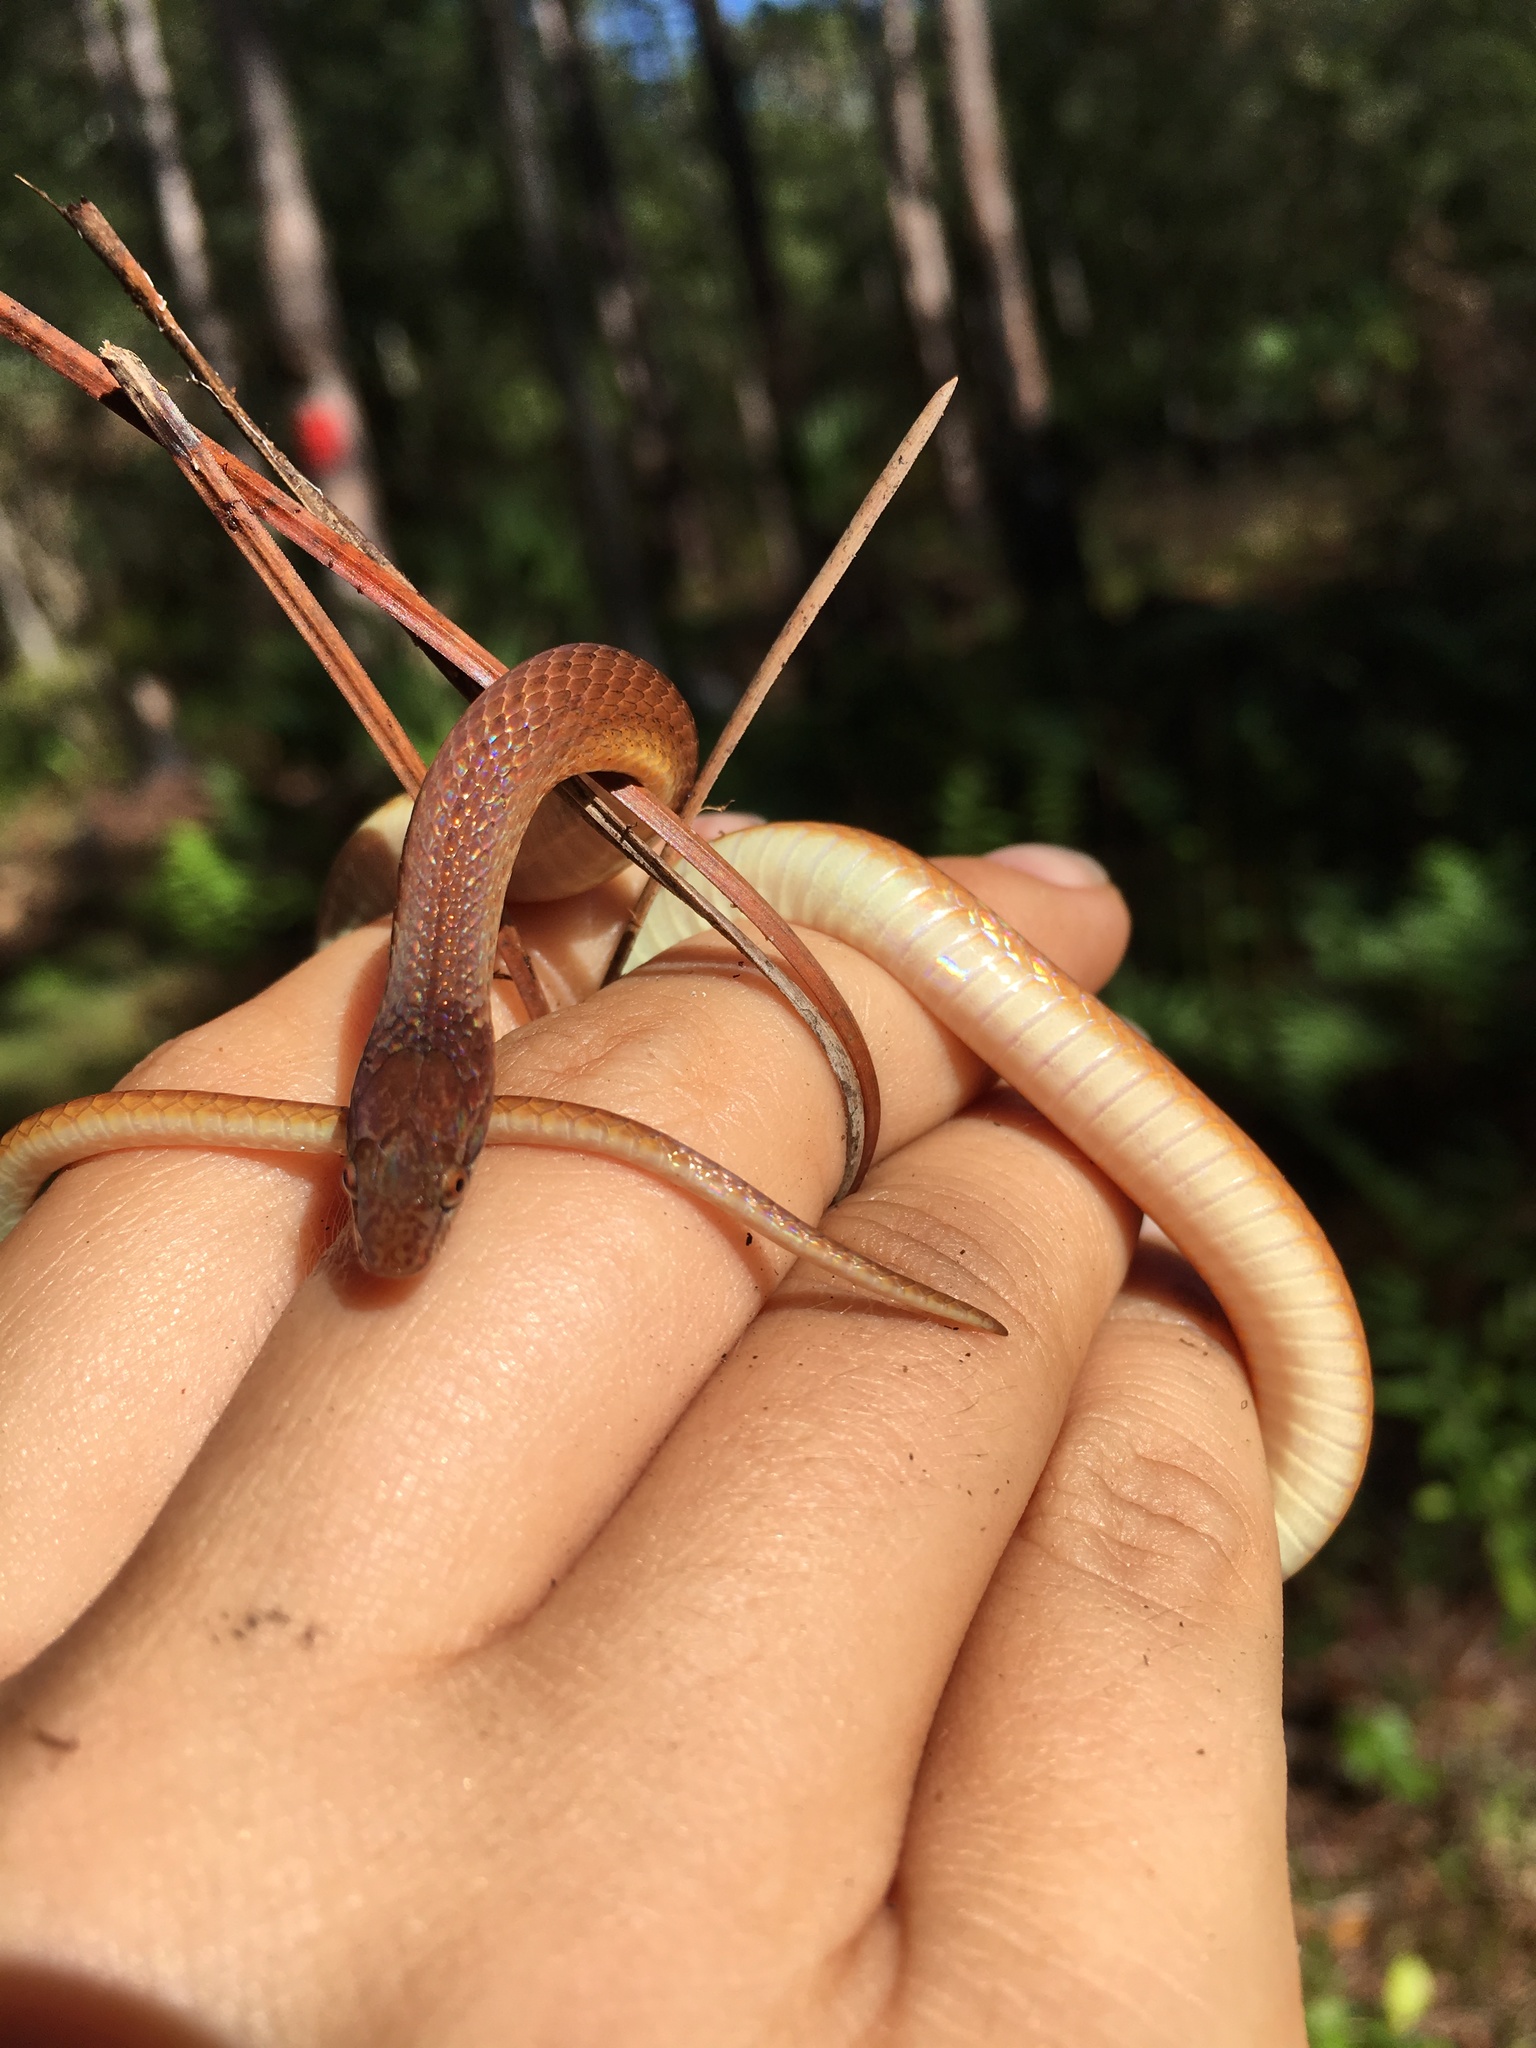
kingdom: Animalia
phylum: Chordata
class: Squamata
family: Colubridae
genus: Rhadinaea
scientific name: Rhadinaea flavilata
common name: Pine woods littersnake
